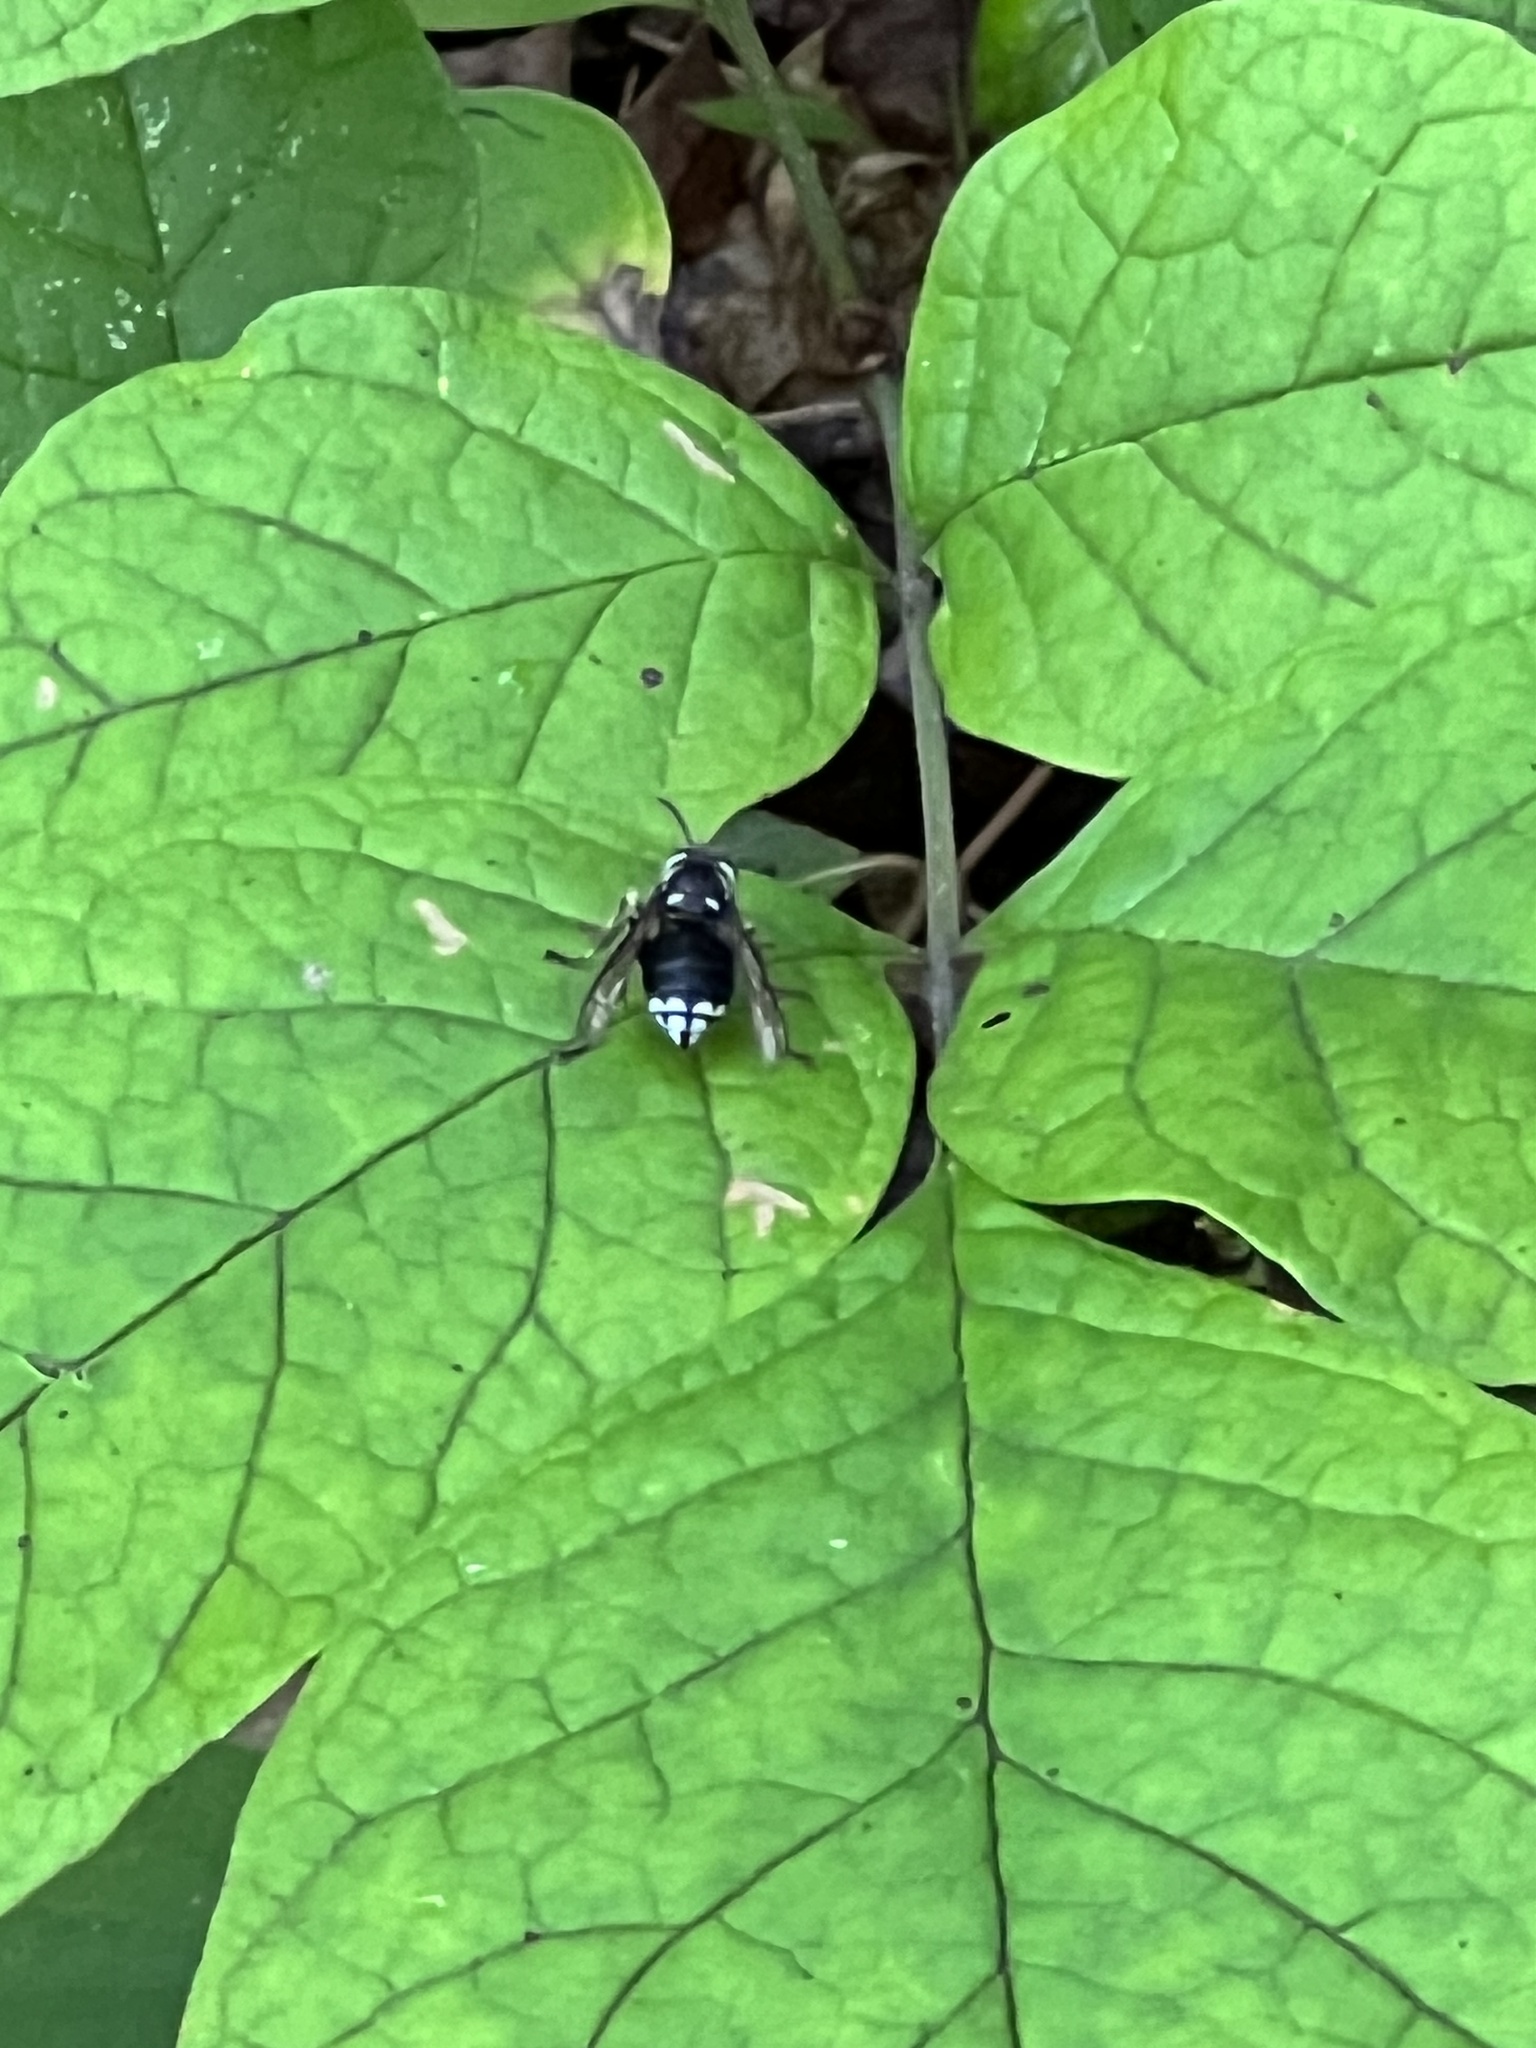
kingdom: Animalia
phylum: Arthropoda
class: Insecta
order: Hymenoptera
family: Vespidae
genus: Dolichovespula
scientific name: Dolichovespula maculata
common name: Bald-faced hornet
